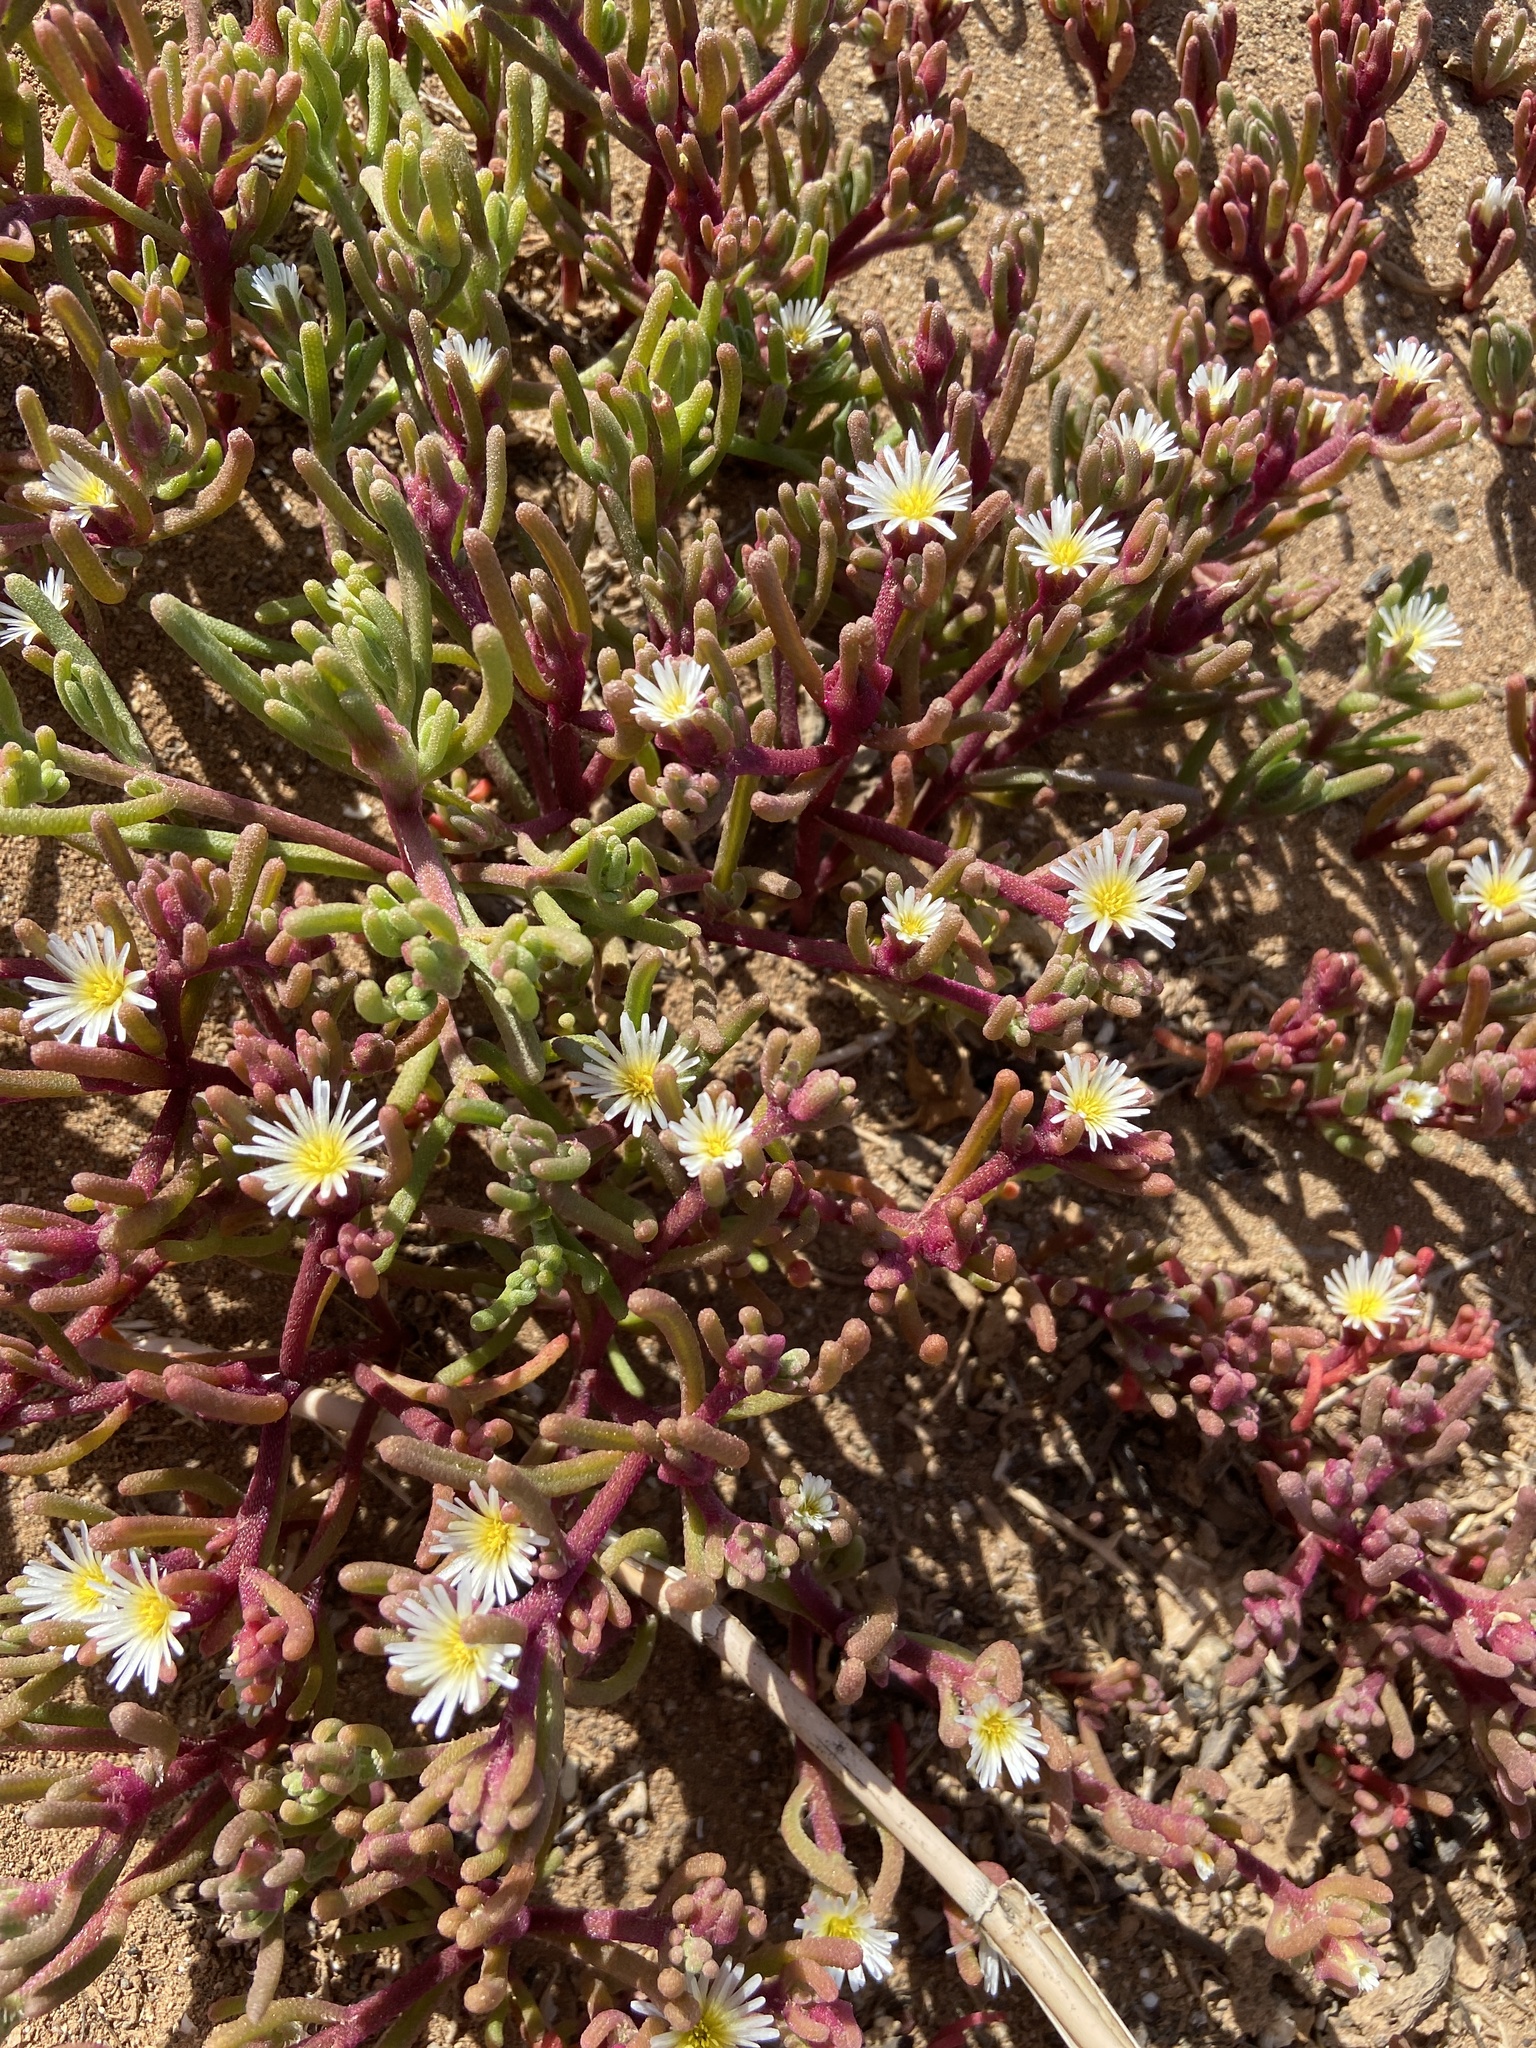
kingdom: Plantae
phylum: Tracheophyta
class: Magnoliopsida
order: Caryophyllales
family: Aizoaceae
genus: Mesembryanthemum
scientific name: Mesembryanthemum nodiflorum
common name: Slenderleaf iceplant
